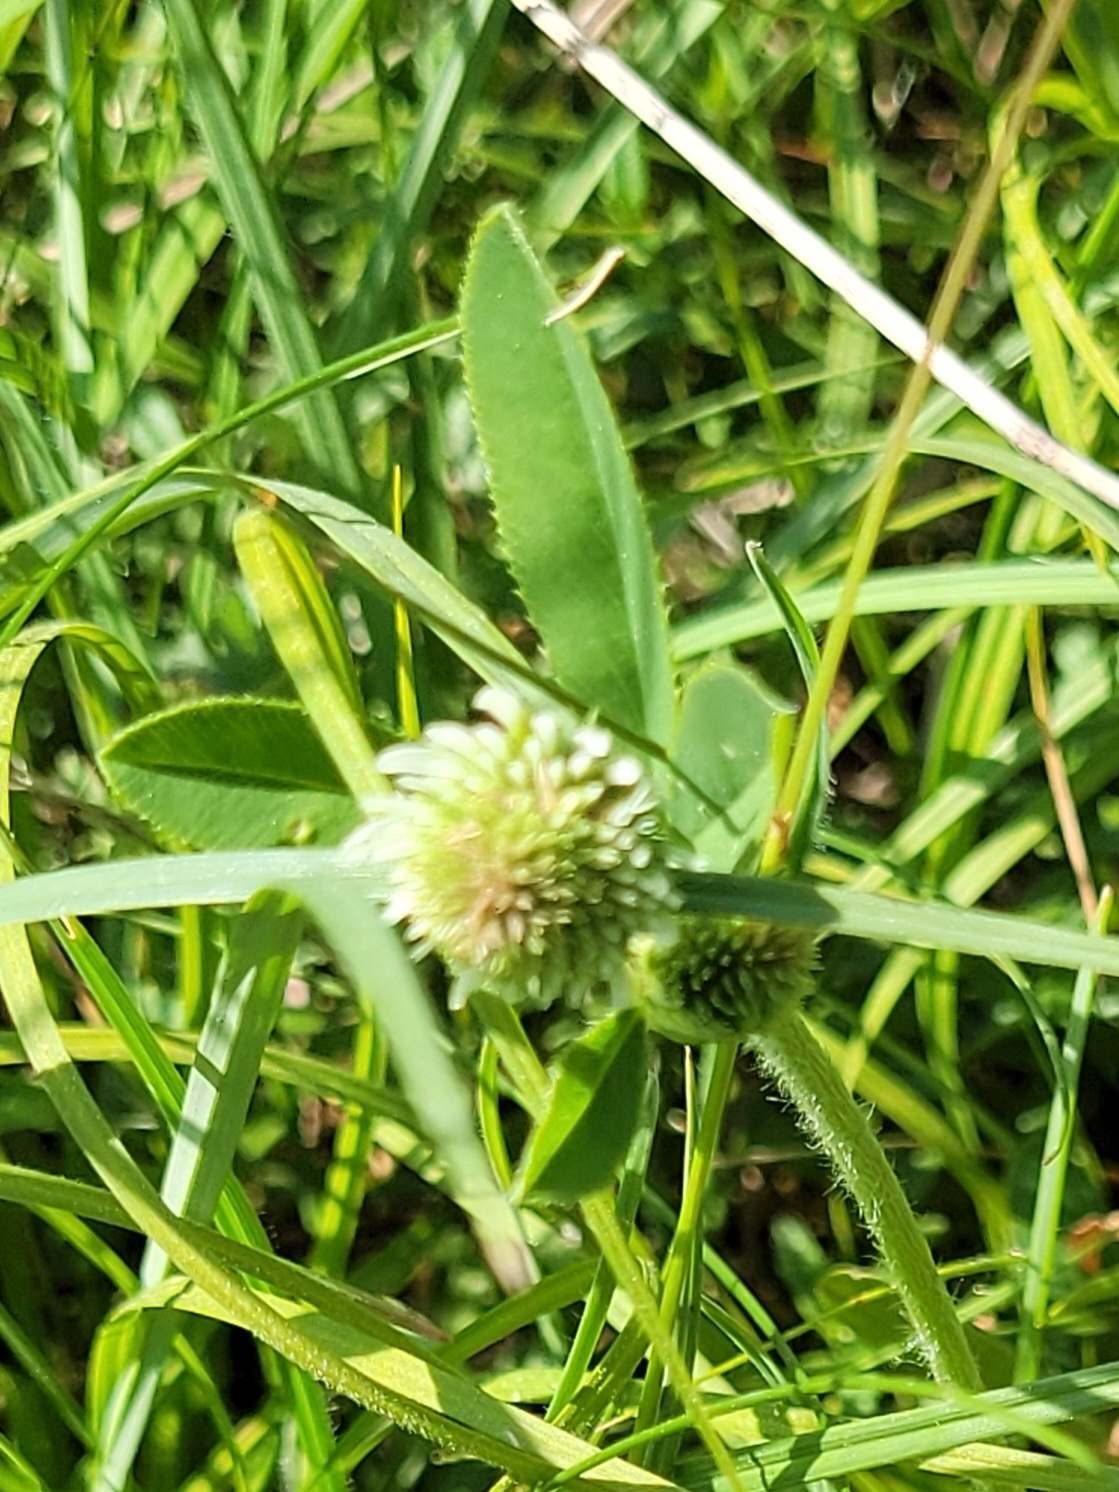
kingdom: Plantae
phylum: Tracheophyta
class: Magnoliopsida
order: Fabales
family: Fabaceae
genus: Trifolium
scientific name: Trifolium montanum
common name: Mountain clover
